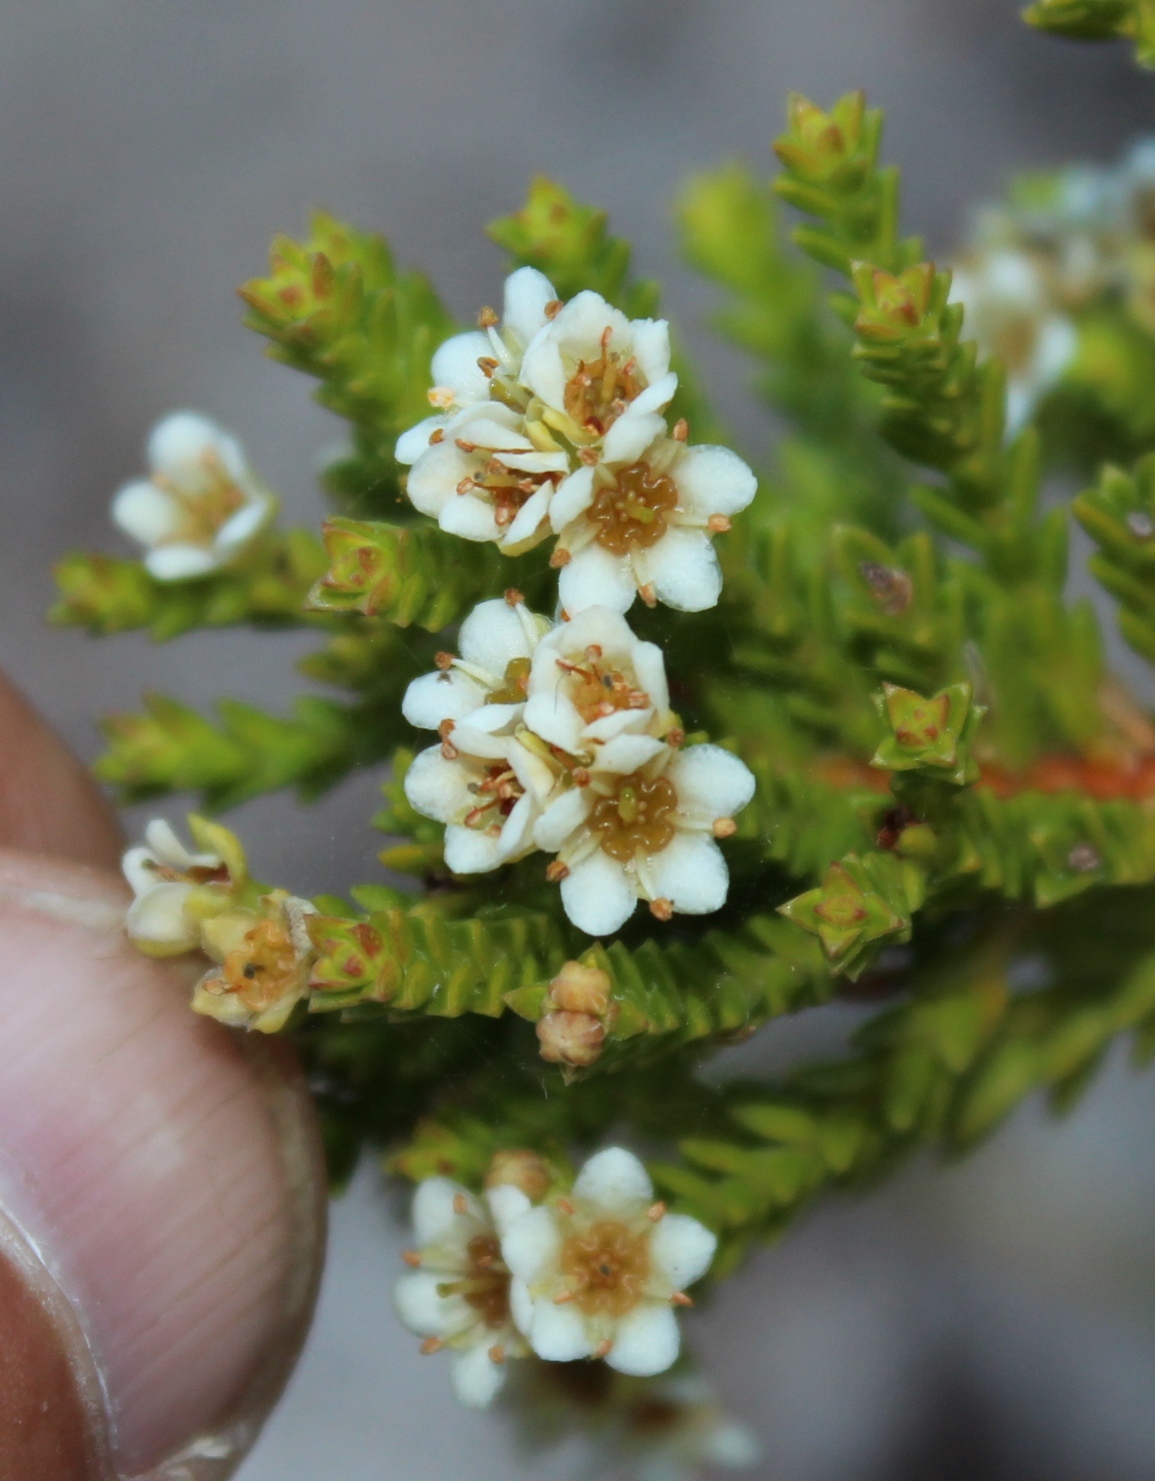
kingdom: Plantae
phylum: Tracheophyta
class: Magnoliopsida
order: Sapindales
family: Rutaceae
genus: Diosma
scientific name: Diosma oppositifolia
